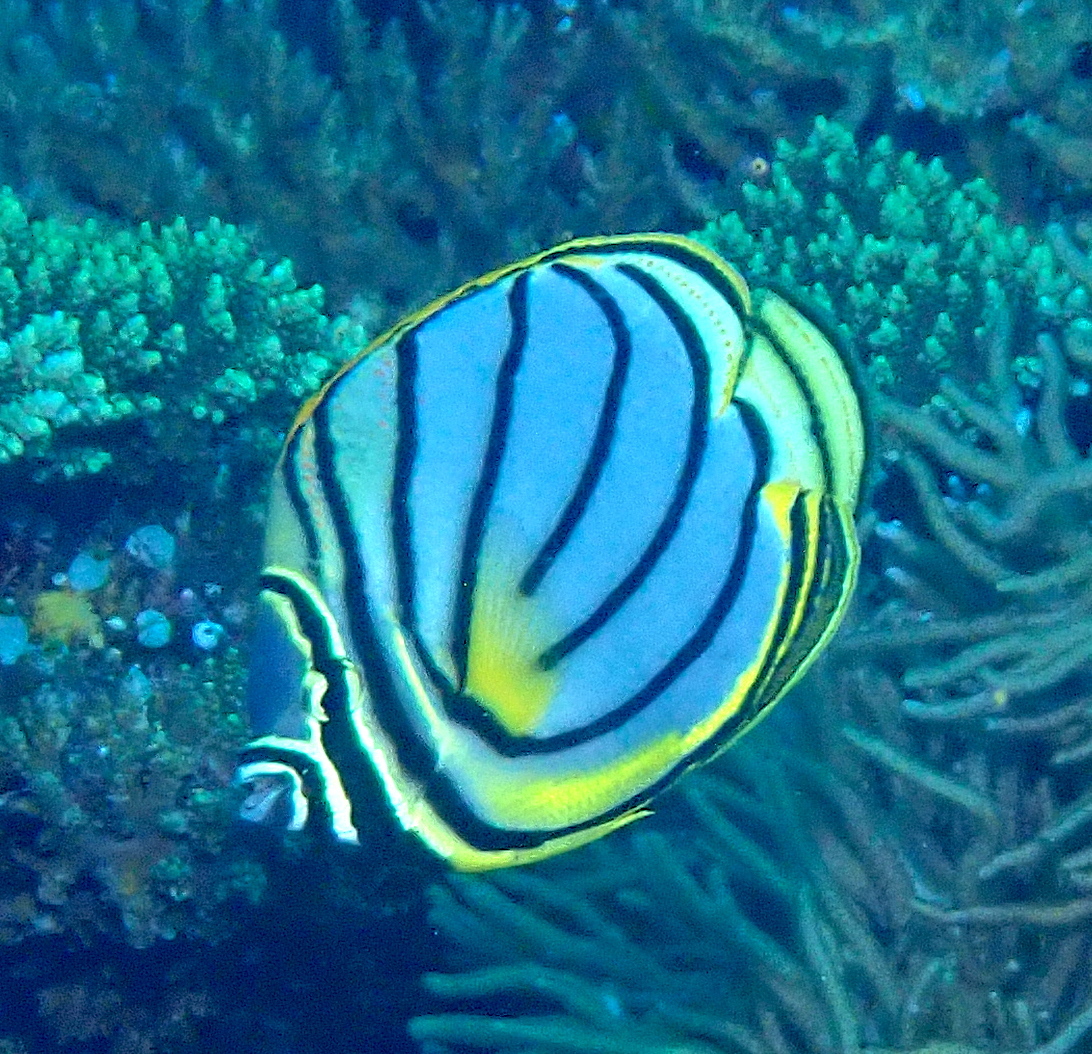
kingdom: Animalia
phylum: Chordata
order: Perciformes
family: Chaetodontidae
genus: Chaetodon
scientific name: Chaetodon meyeri
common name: Meyer's butterflyfish
